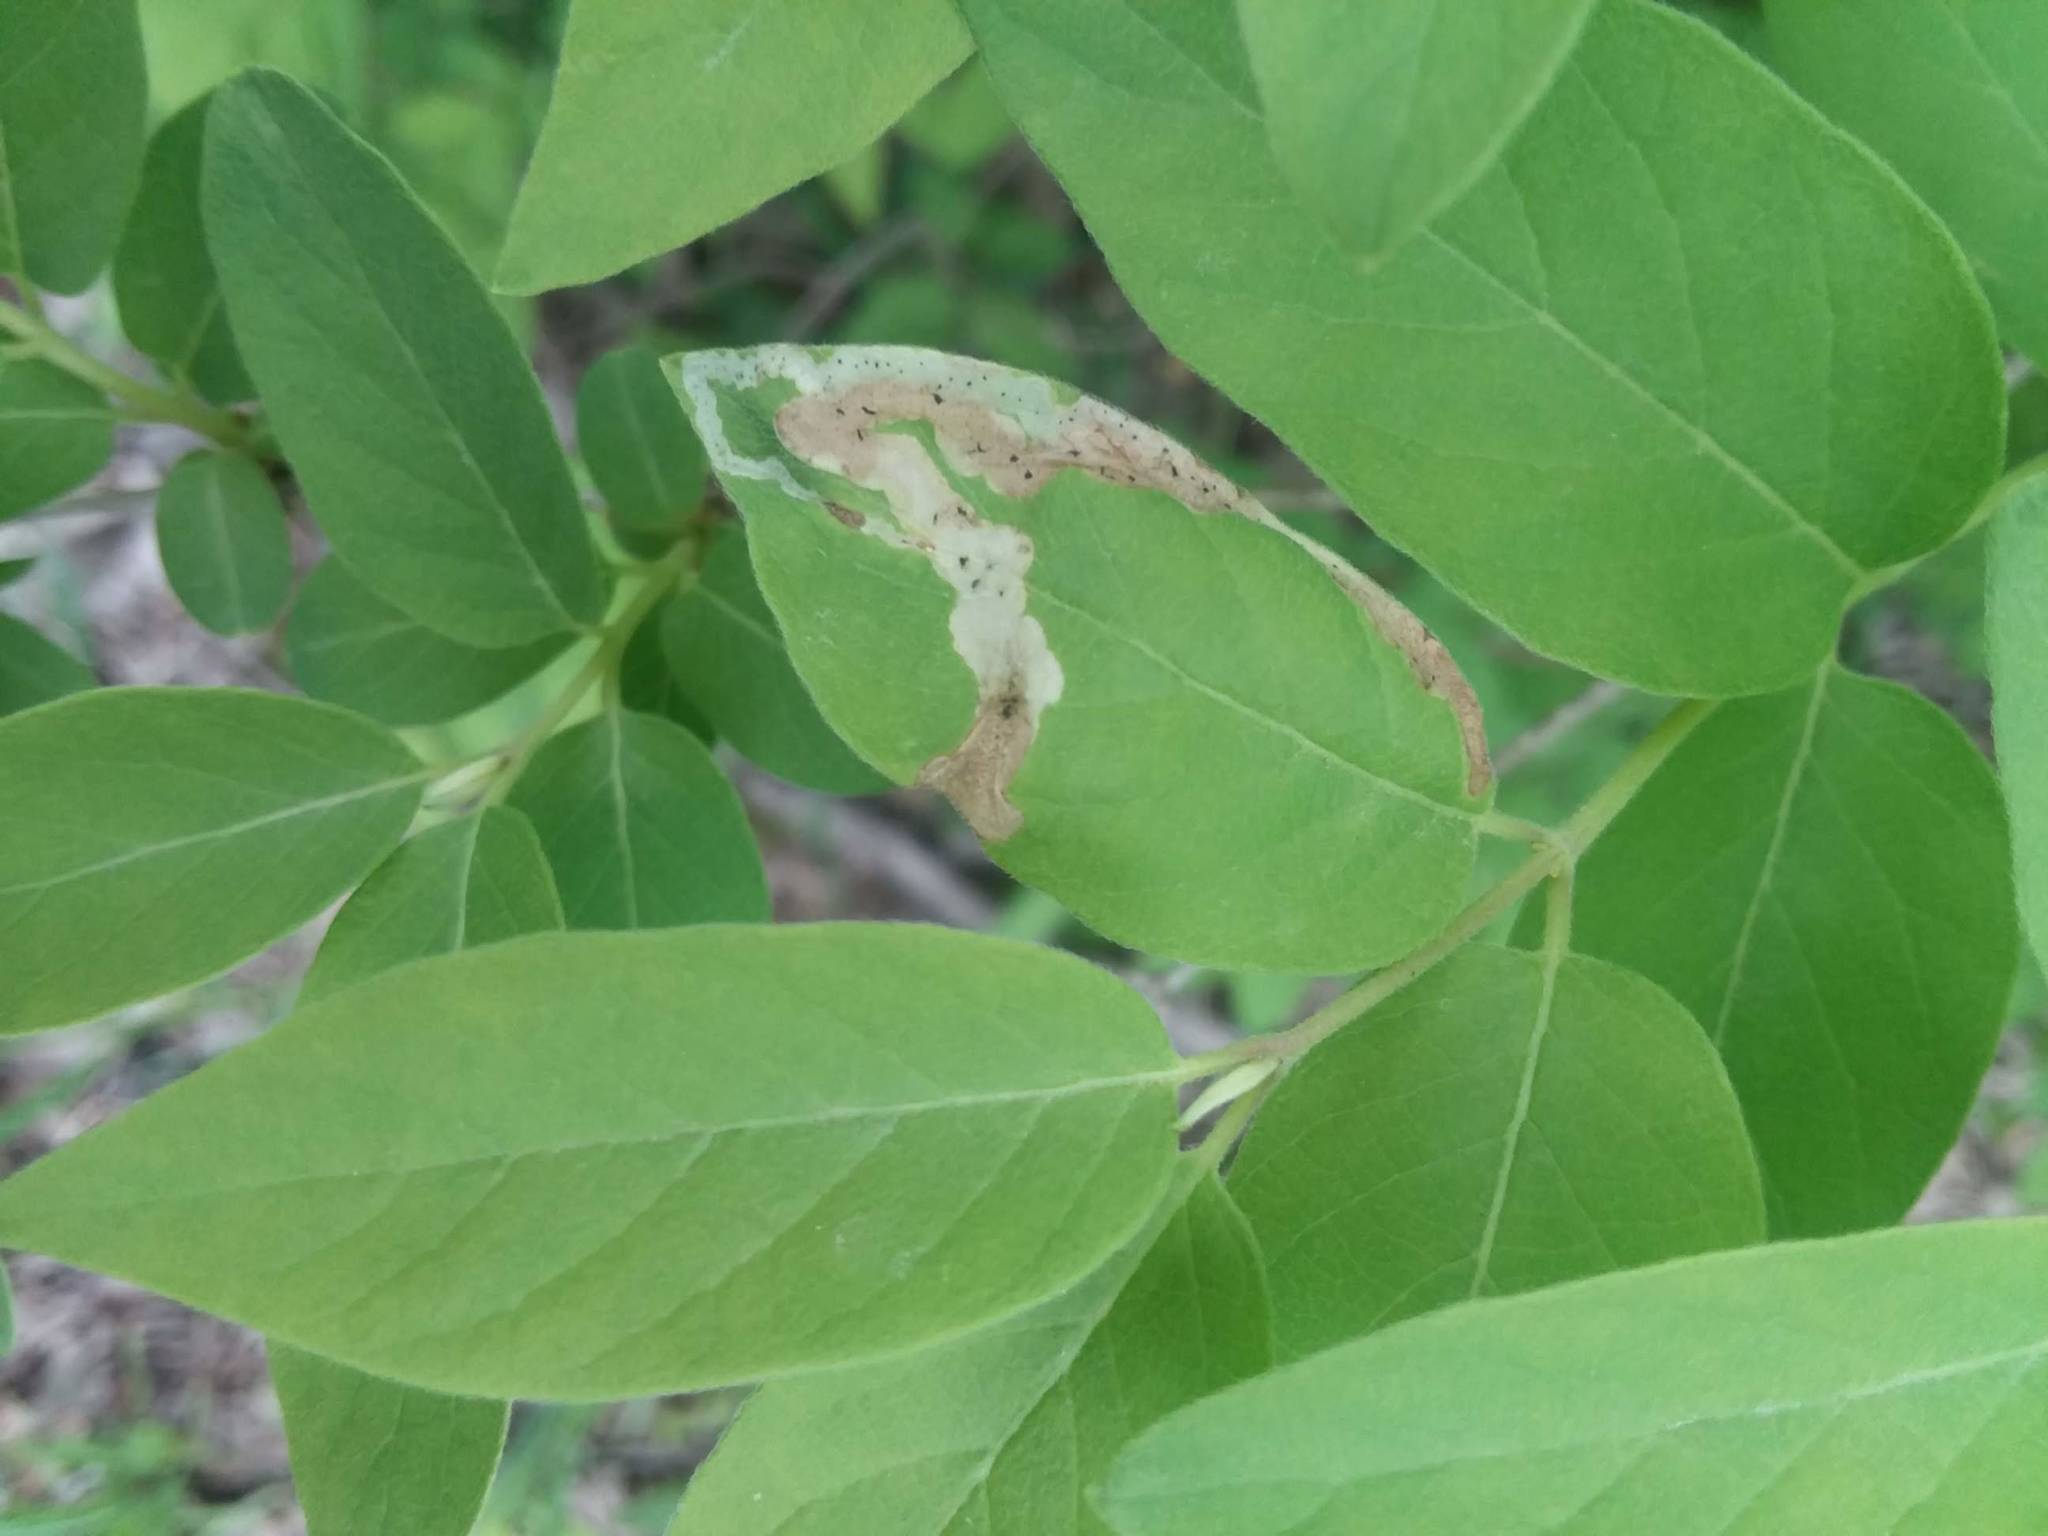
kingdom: Animalia
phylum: Arthropoda
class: Insecta
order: Diptera
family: Agromyzidae
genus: Aulagromyza
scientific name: Aulagromyza cornigera
